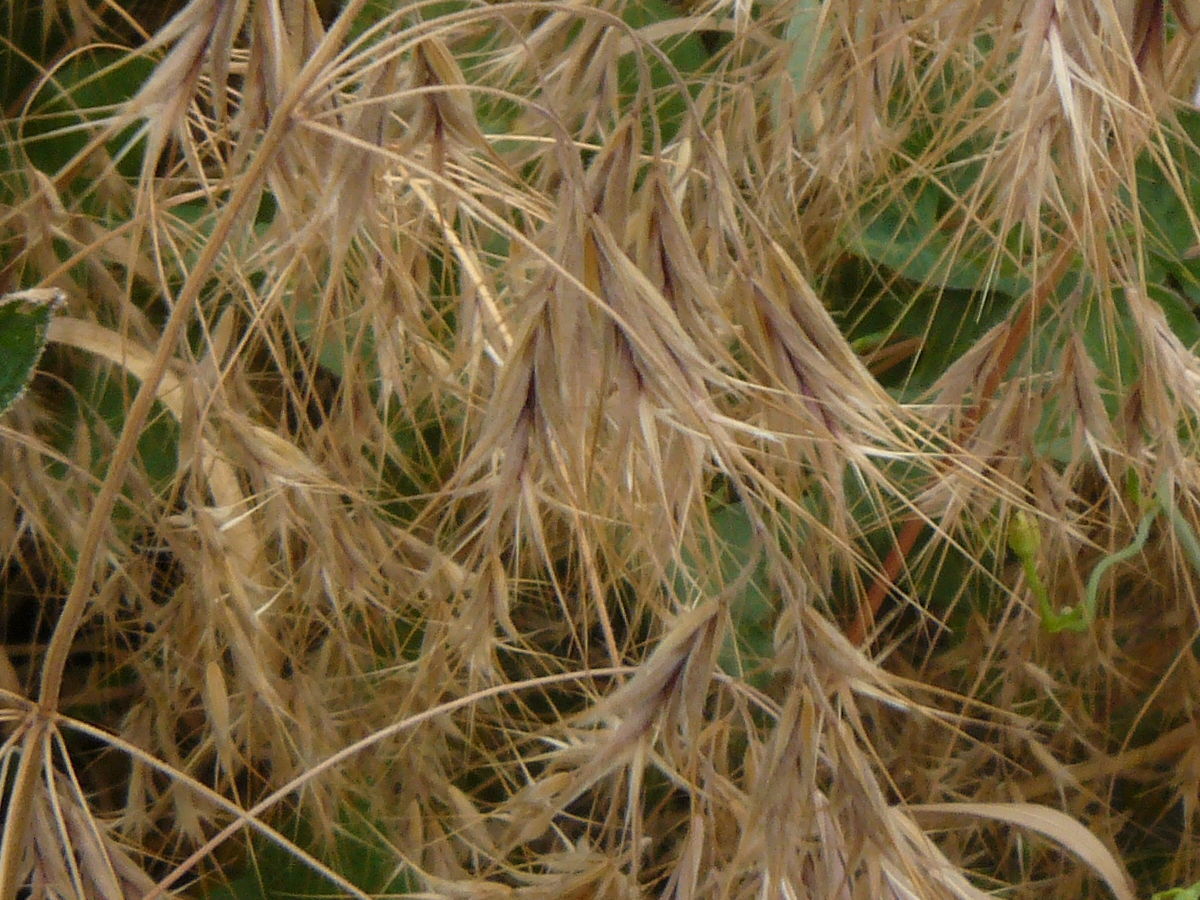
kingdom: Plantae
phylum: Tracheophyta
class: Liliopsida
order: Poales
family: Poaceae
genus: Bromus
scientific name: Bromus tectorum
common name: Cheatgrass
